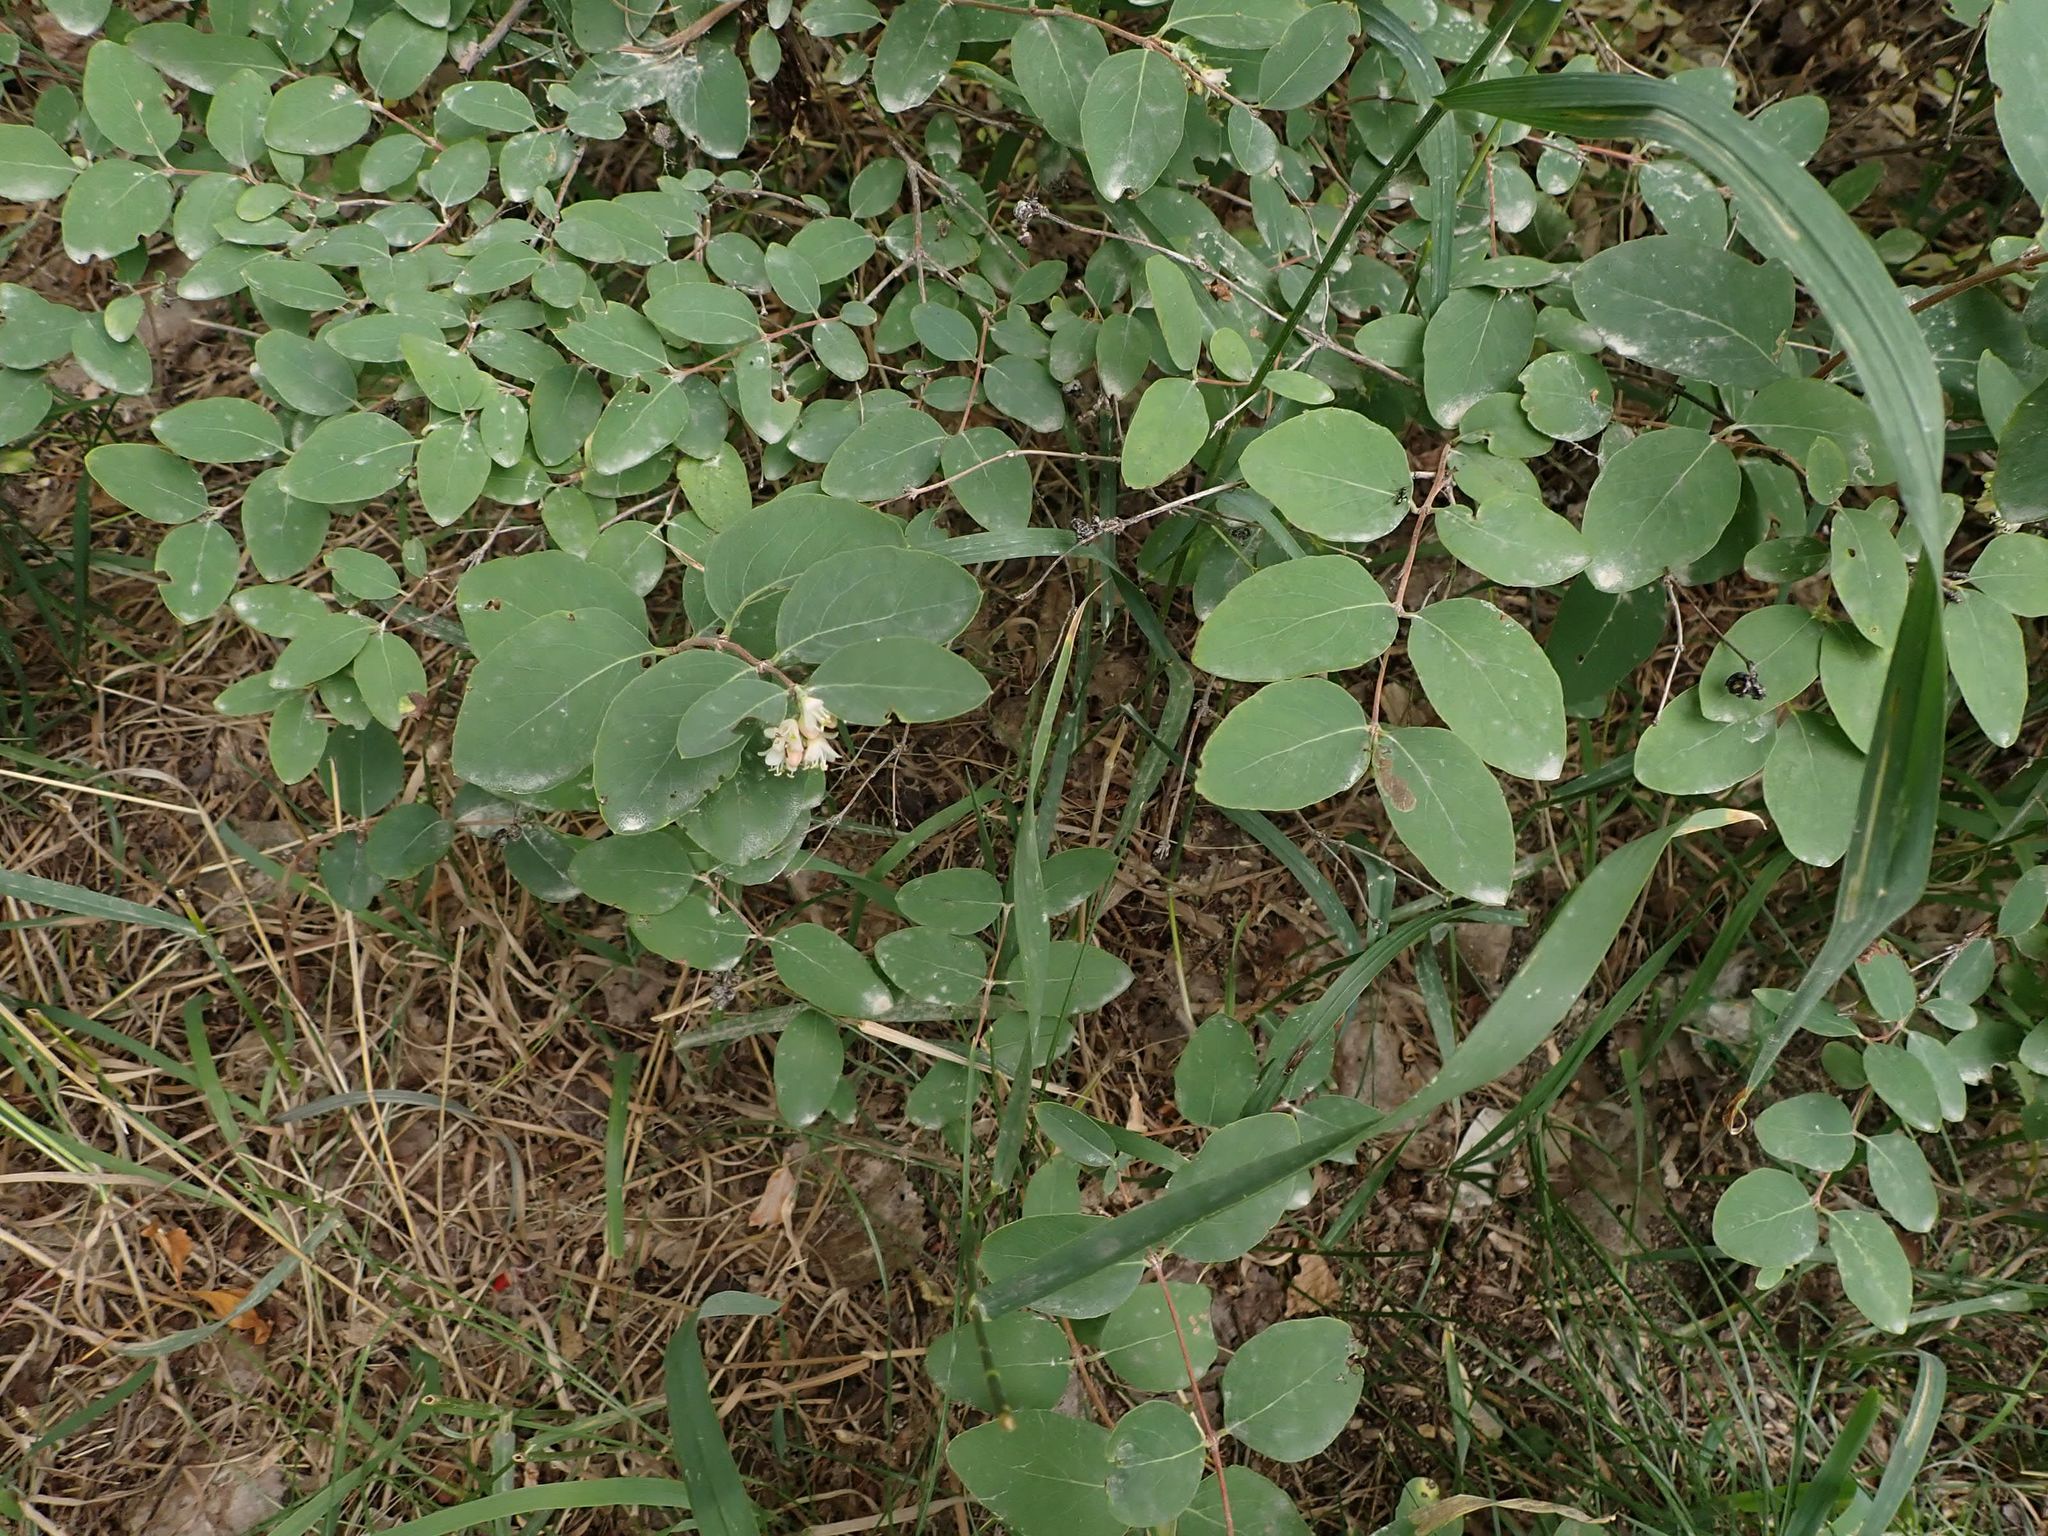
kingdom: Plantae
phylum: Tracheophyta
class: Magnoliopsida
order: Dipsacales
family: Caprifoliaceae
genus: Symphoricarpos
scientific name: Symphoricarpos occidentalis
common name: Wolfberry
